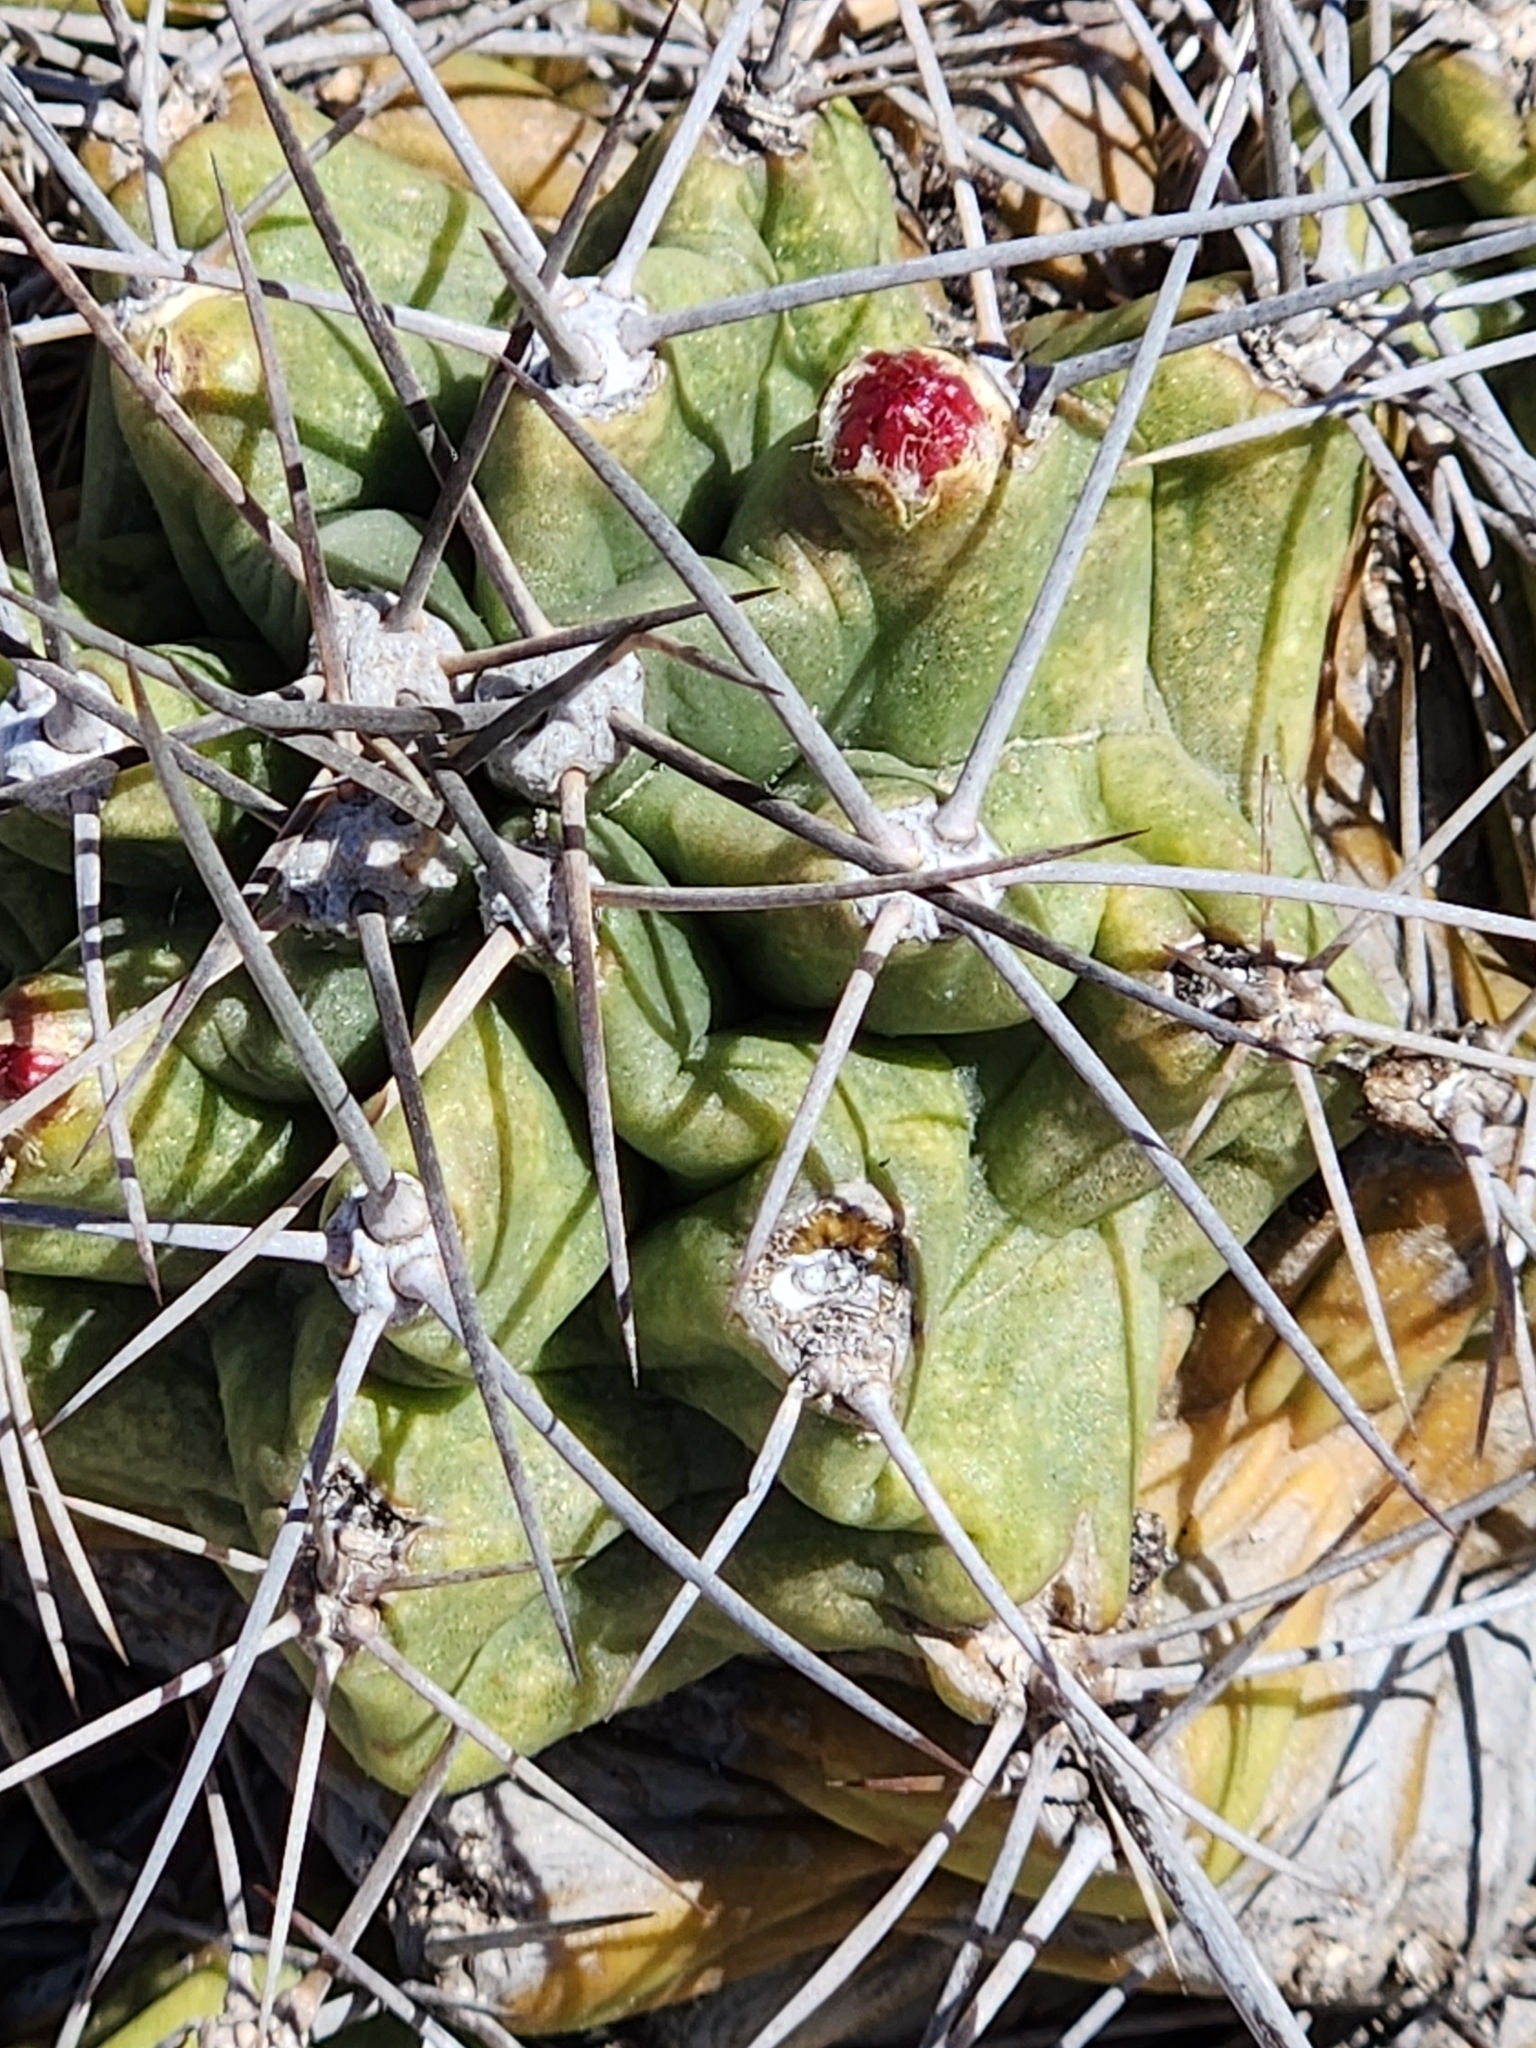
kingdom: Plantae
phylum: Tracheophyta
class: Magnoliopsida
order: Caryophyllales
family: Cactaceae
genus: Echinocereus
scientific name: Echinocereus coccineus
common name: Scarlet hedgehog cactus
